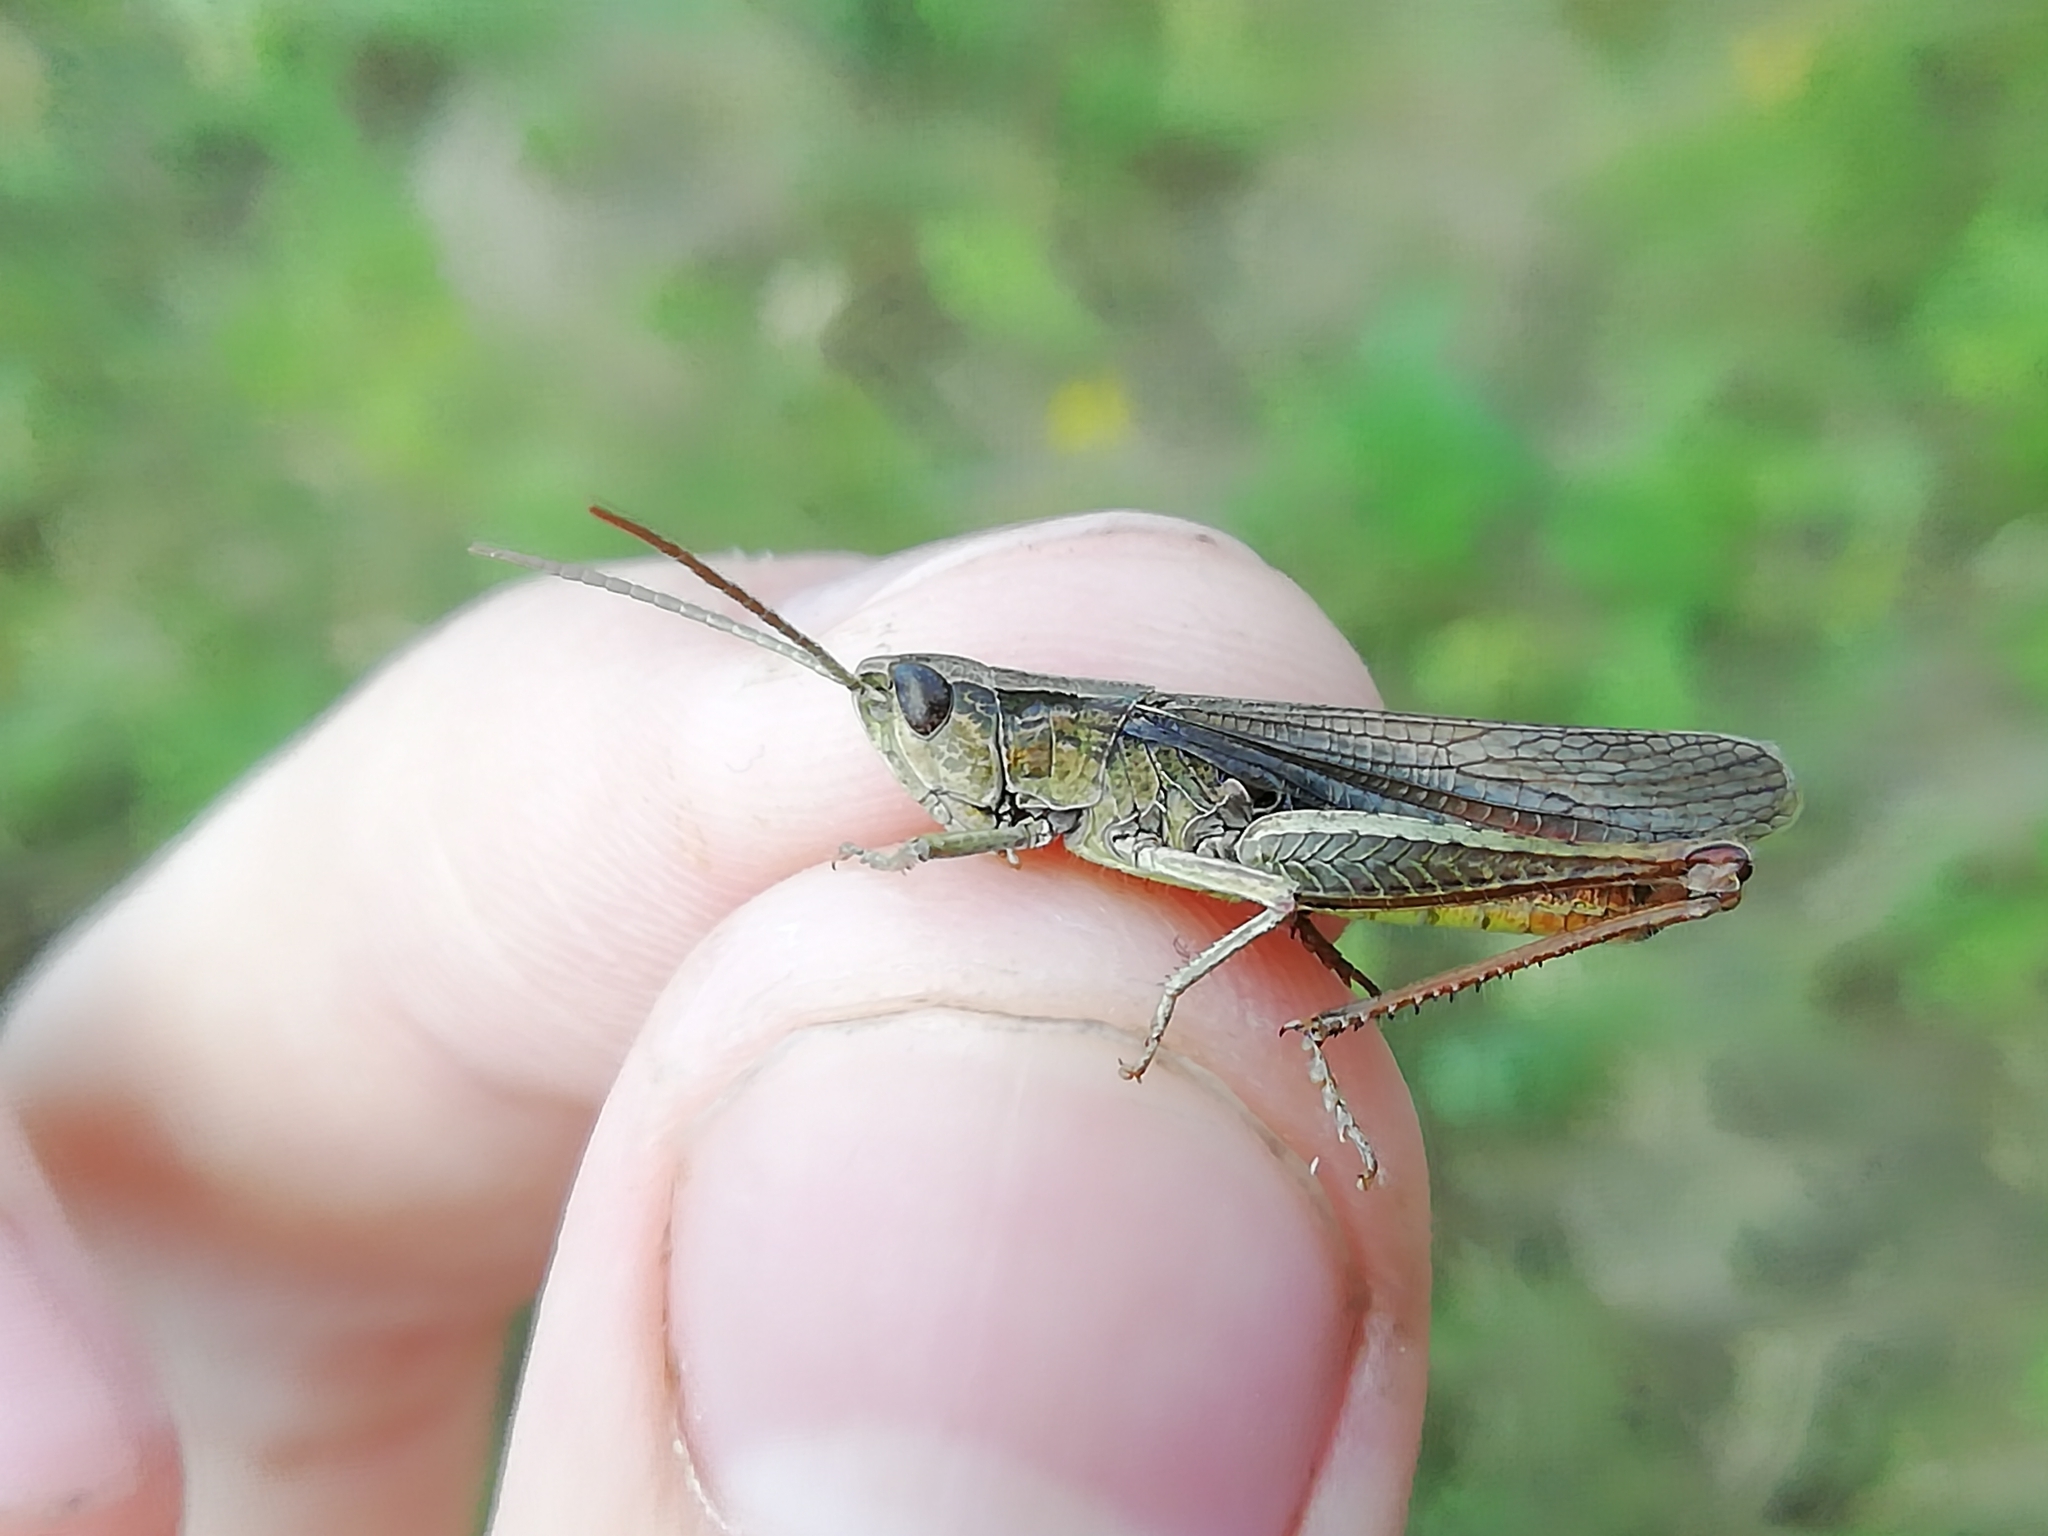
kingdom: Animalia
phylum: Arthropoda
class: Insecta
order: Orthoptera
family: Acrididae
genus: Chorthippus
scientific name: Chorthippus dorsatus
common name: Steppe grasshopper
